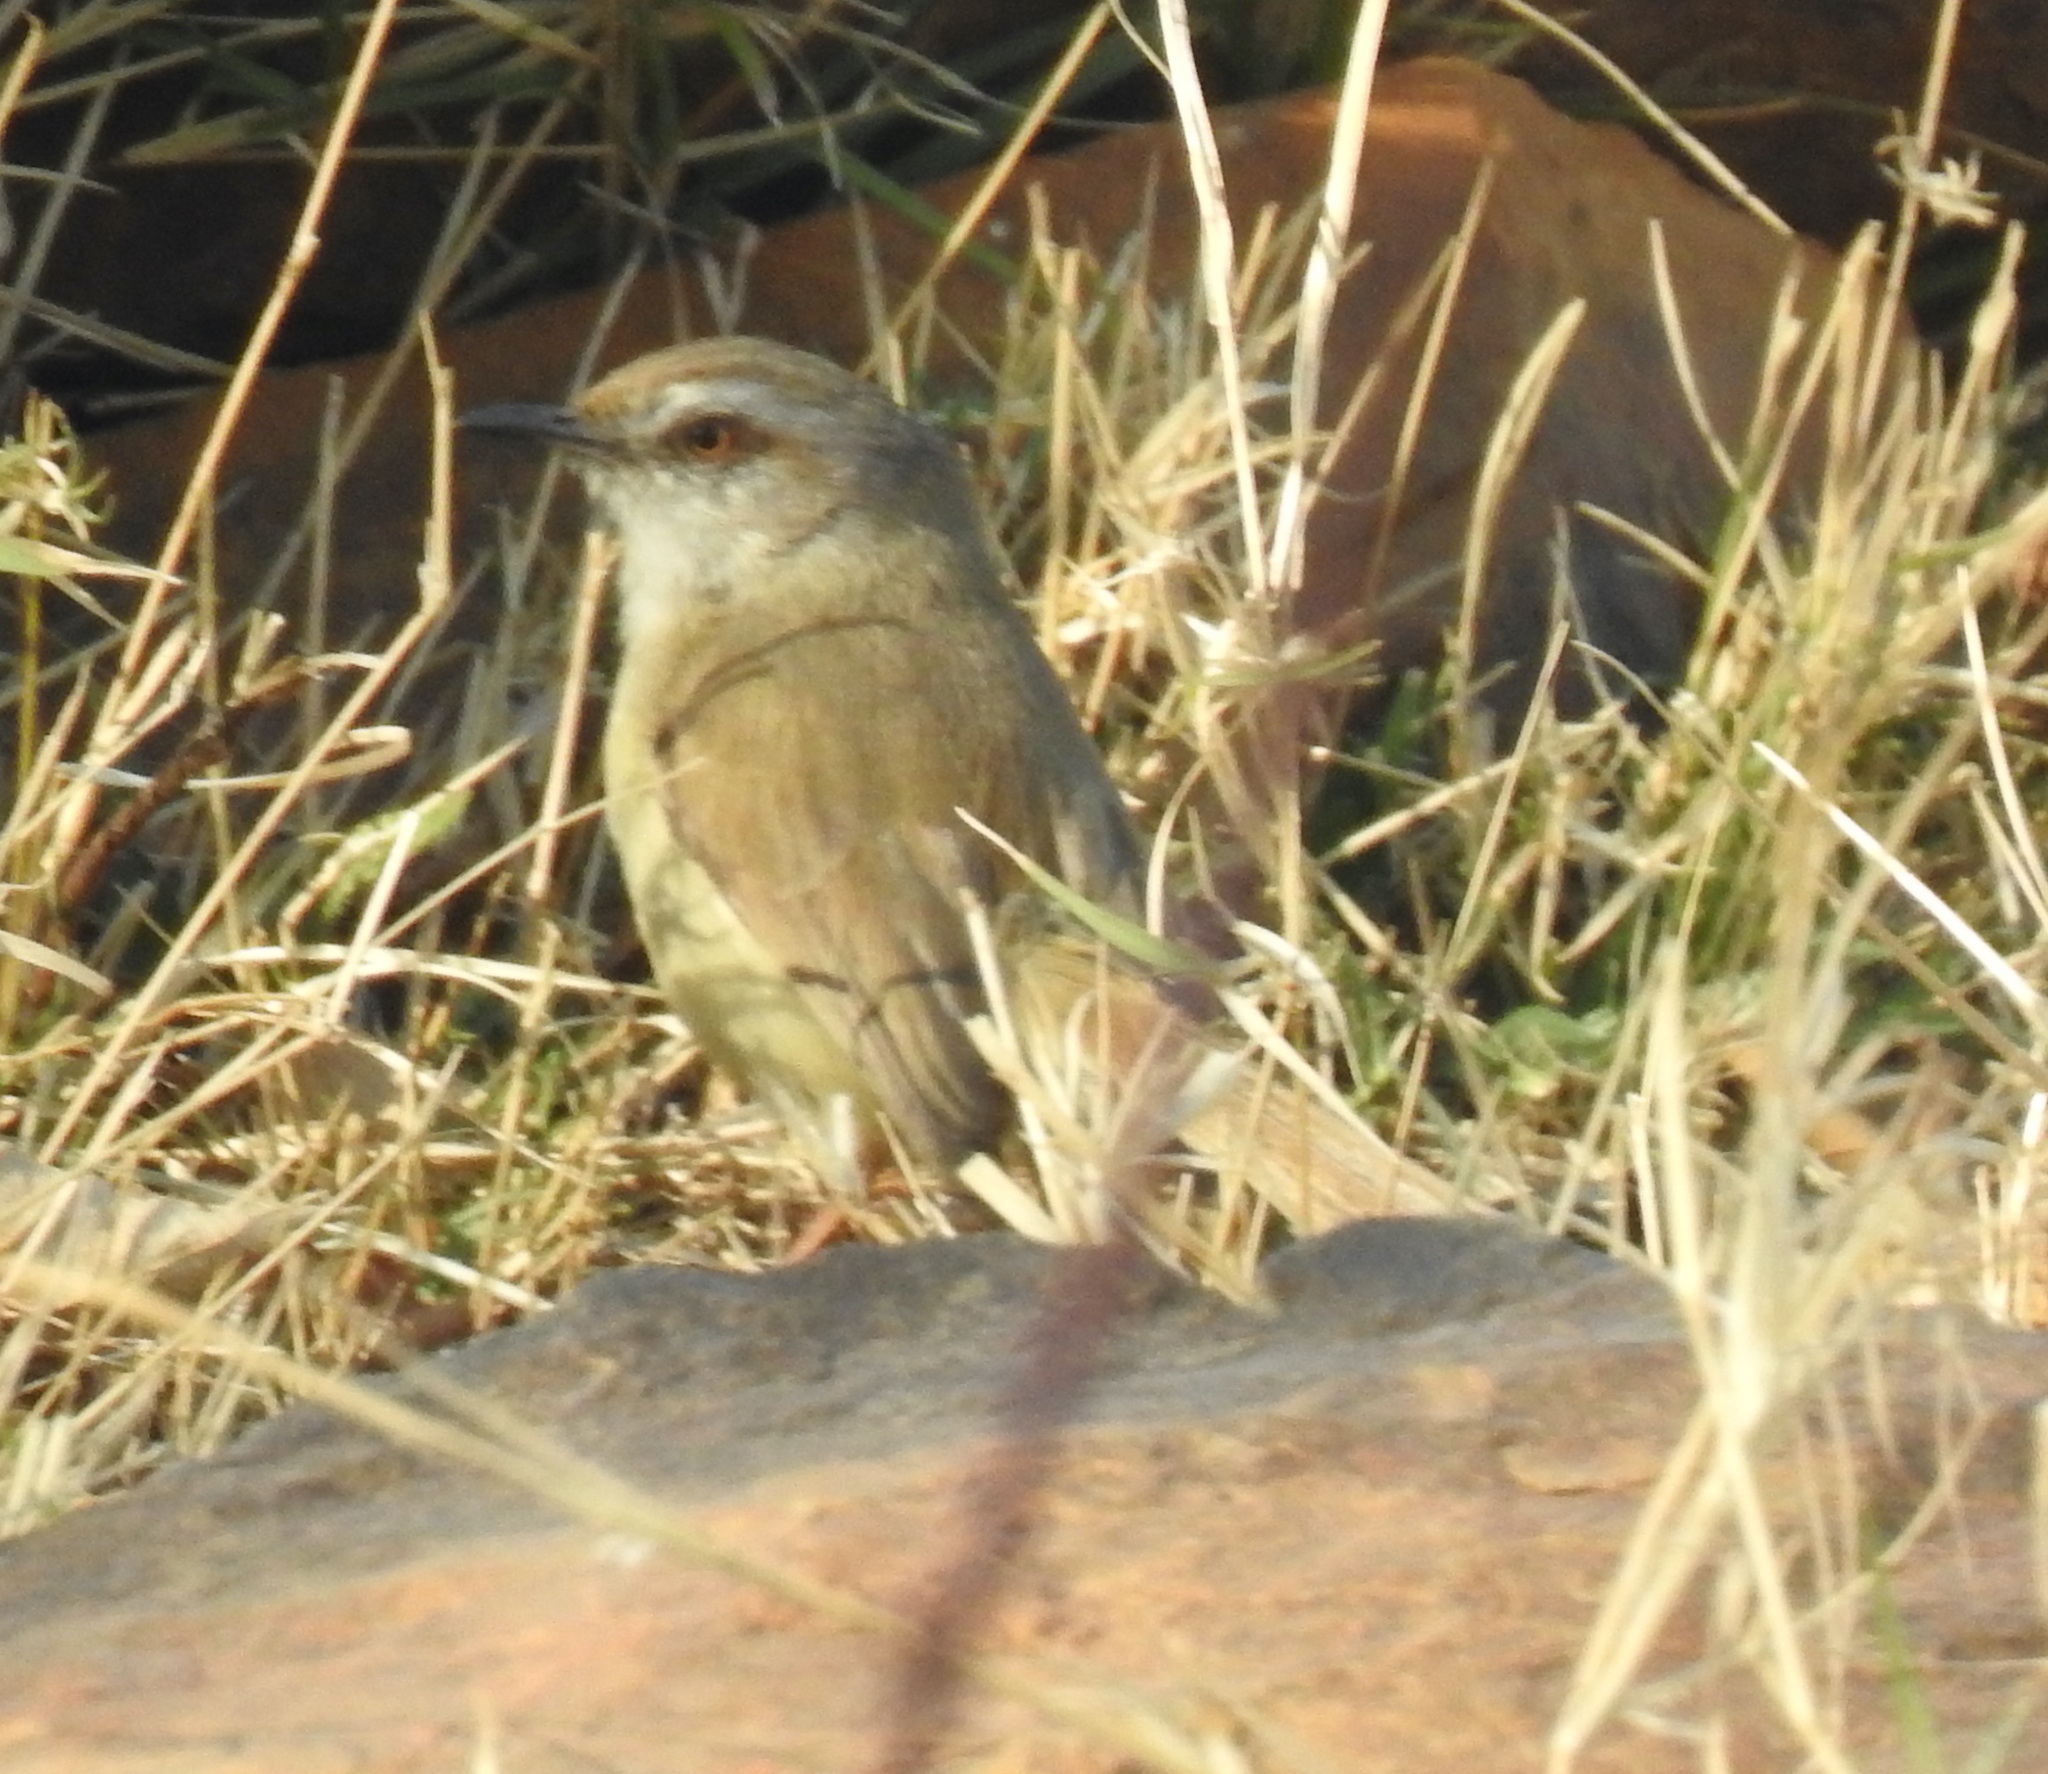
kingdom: Animalia
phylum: Chordata
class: Aves
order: Passeriformes
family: Cisticolidae
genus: Prinia
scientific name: Prinia subflava
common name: Tawny-flanked prinia
